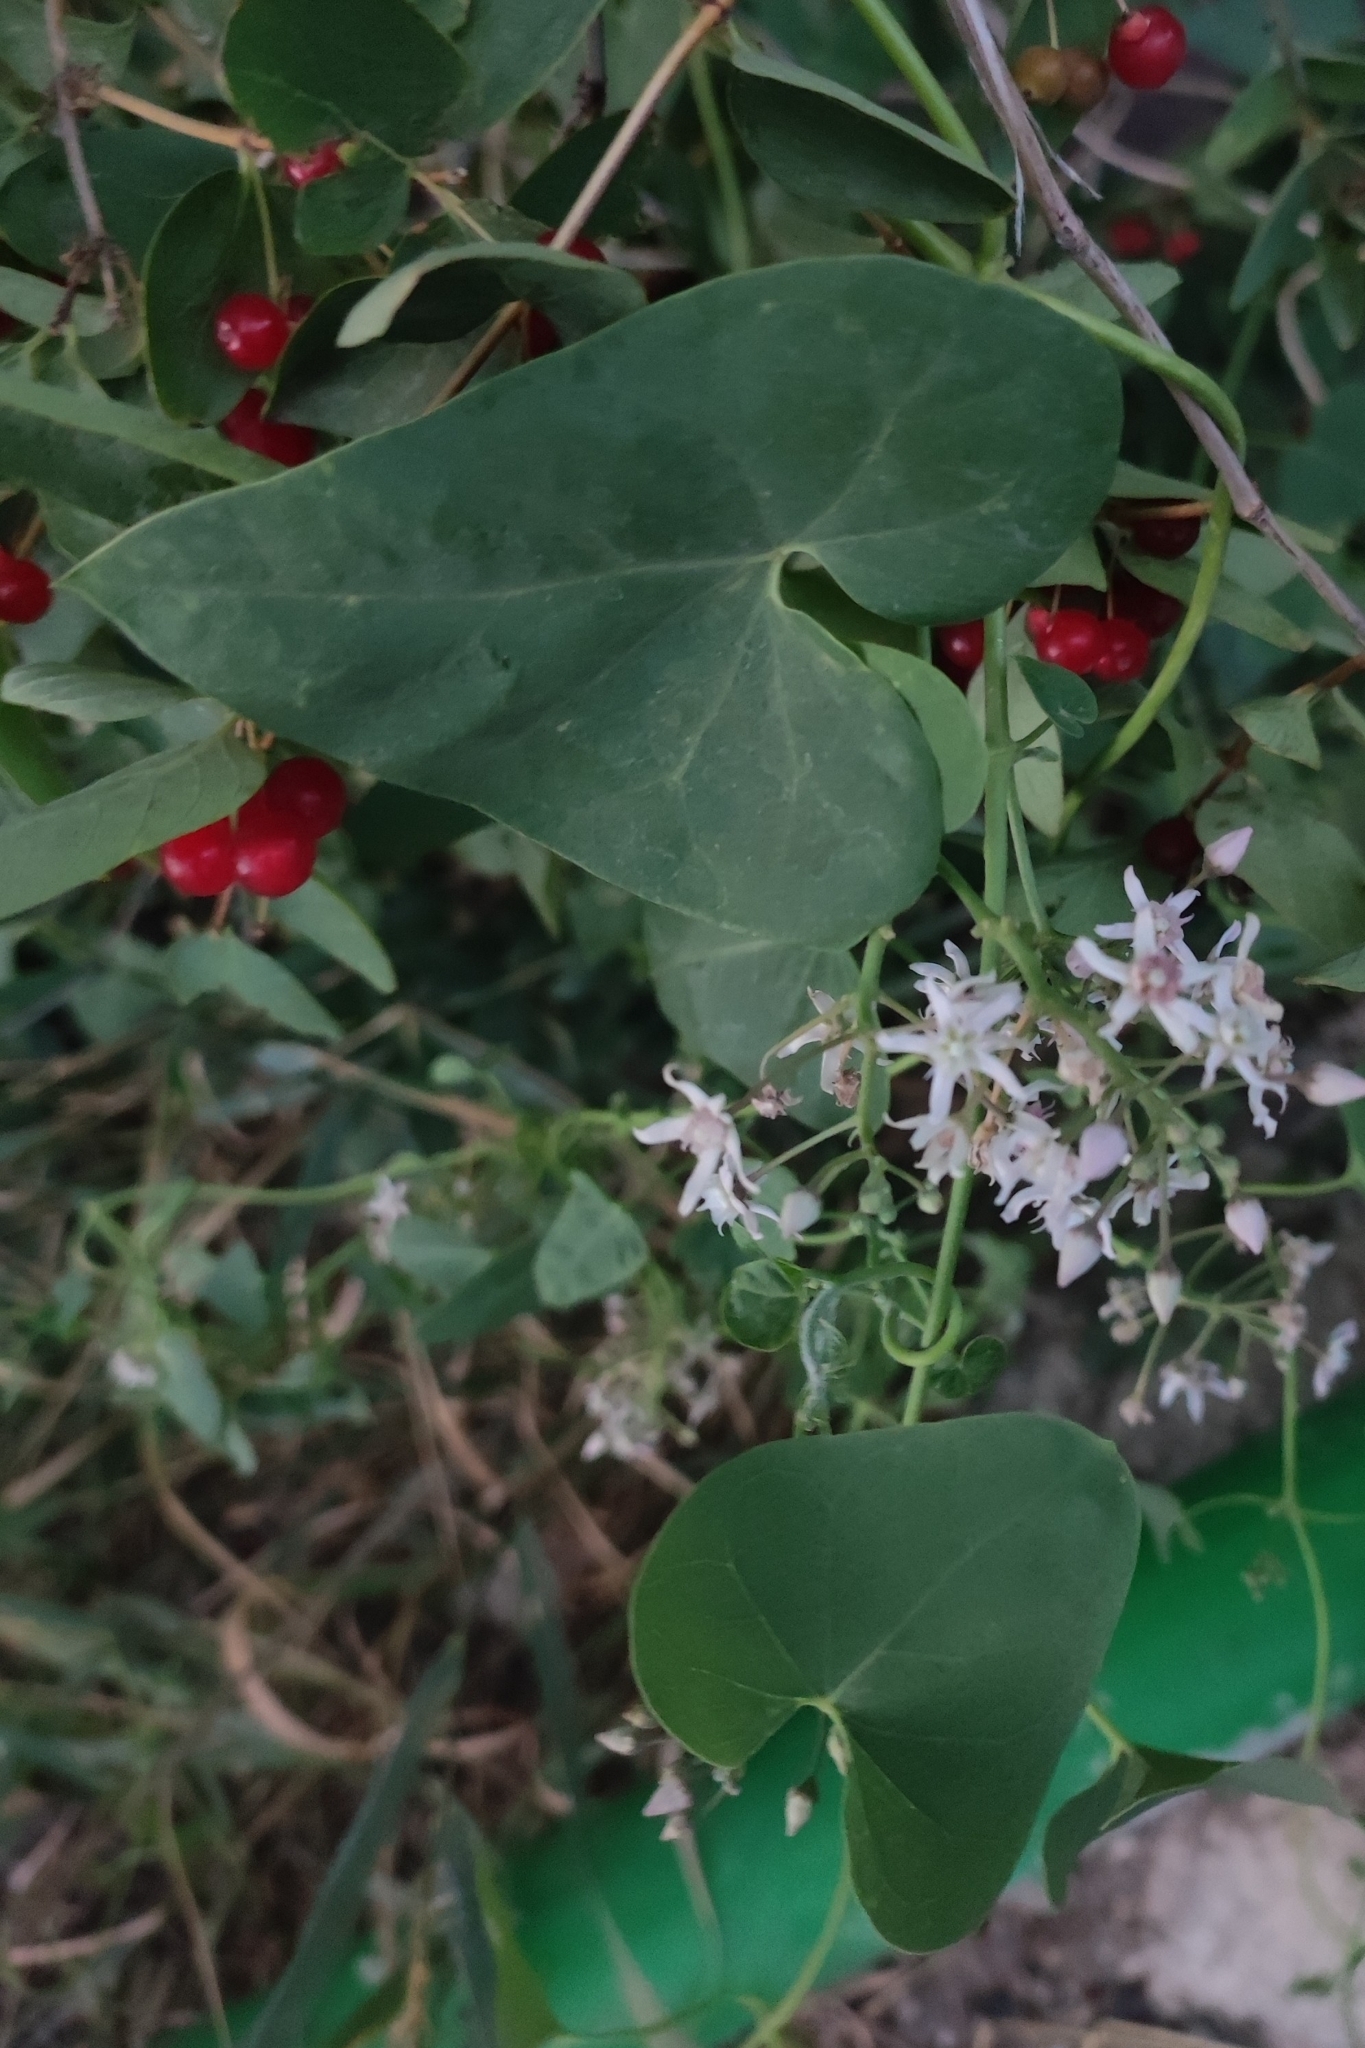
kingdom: Plantae
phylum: Tracheophyta
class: Magnoliopsida
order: Gentianales
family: Apocynaceae
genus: Cynanchum
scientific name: Cynanchum acutum
